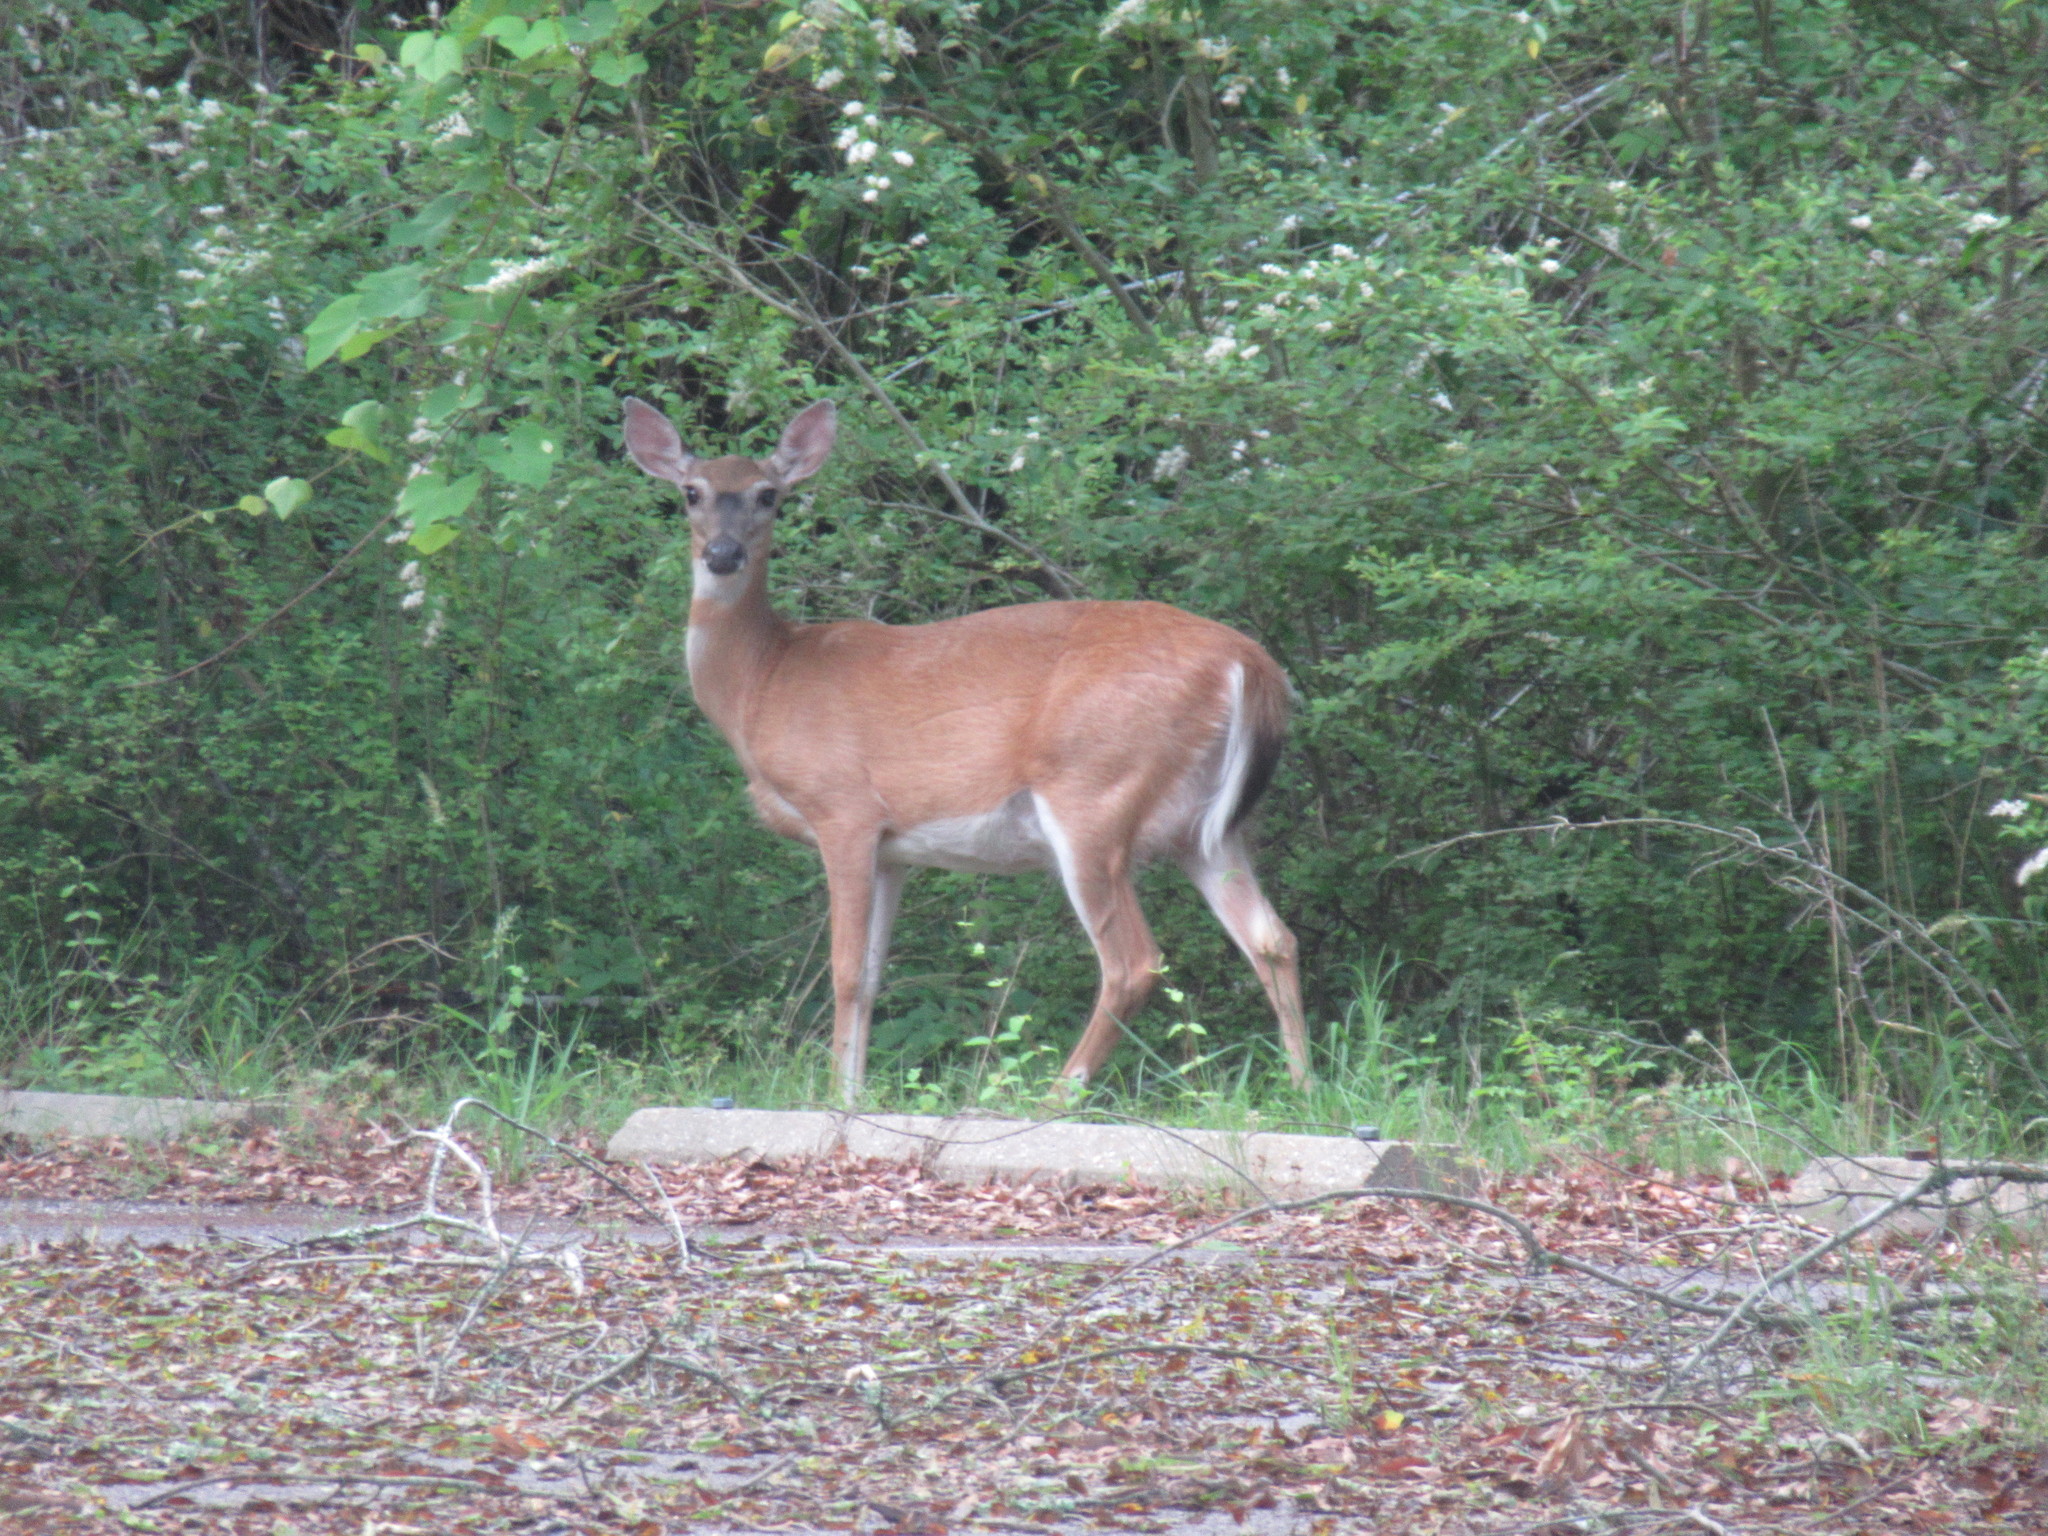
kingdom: Animalia
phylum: Chordata
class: Mammalia
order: Artiodactyla
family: Cervidae
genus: Odocoileus
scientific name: Odocoileus virginianus
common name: White-tailed deer
